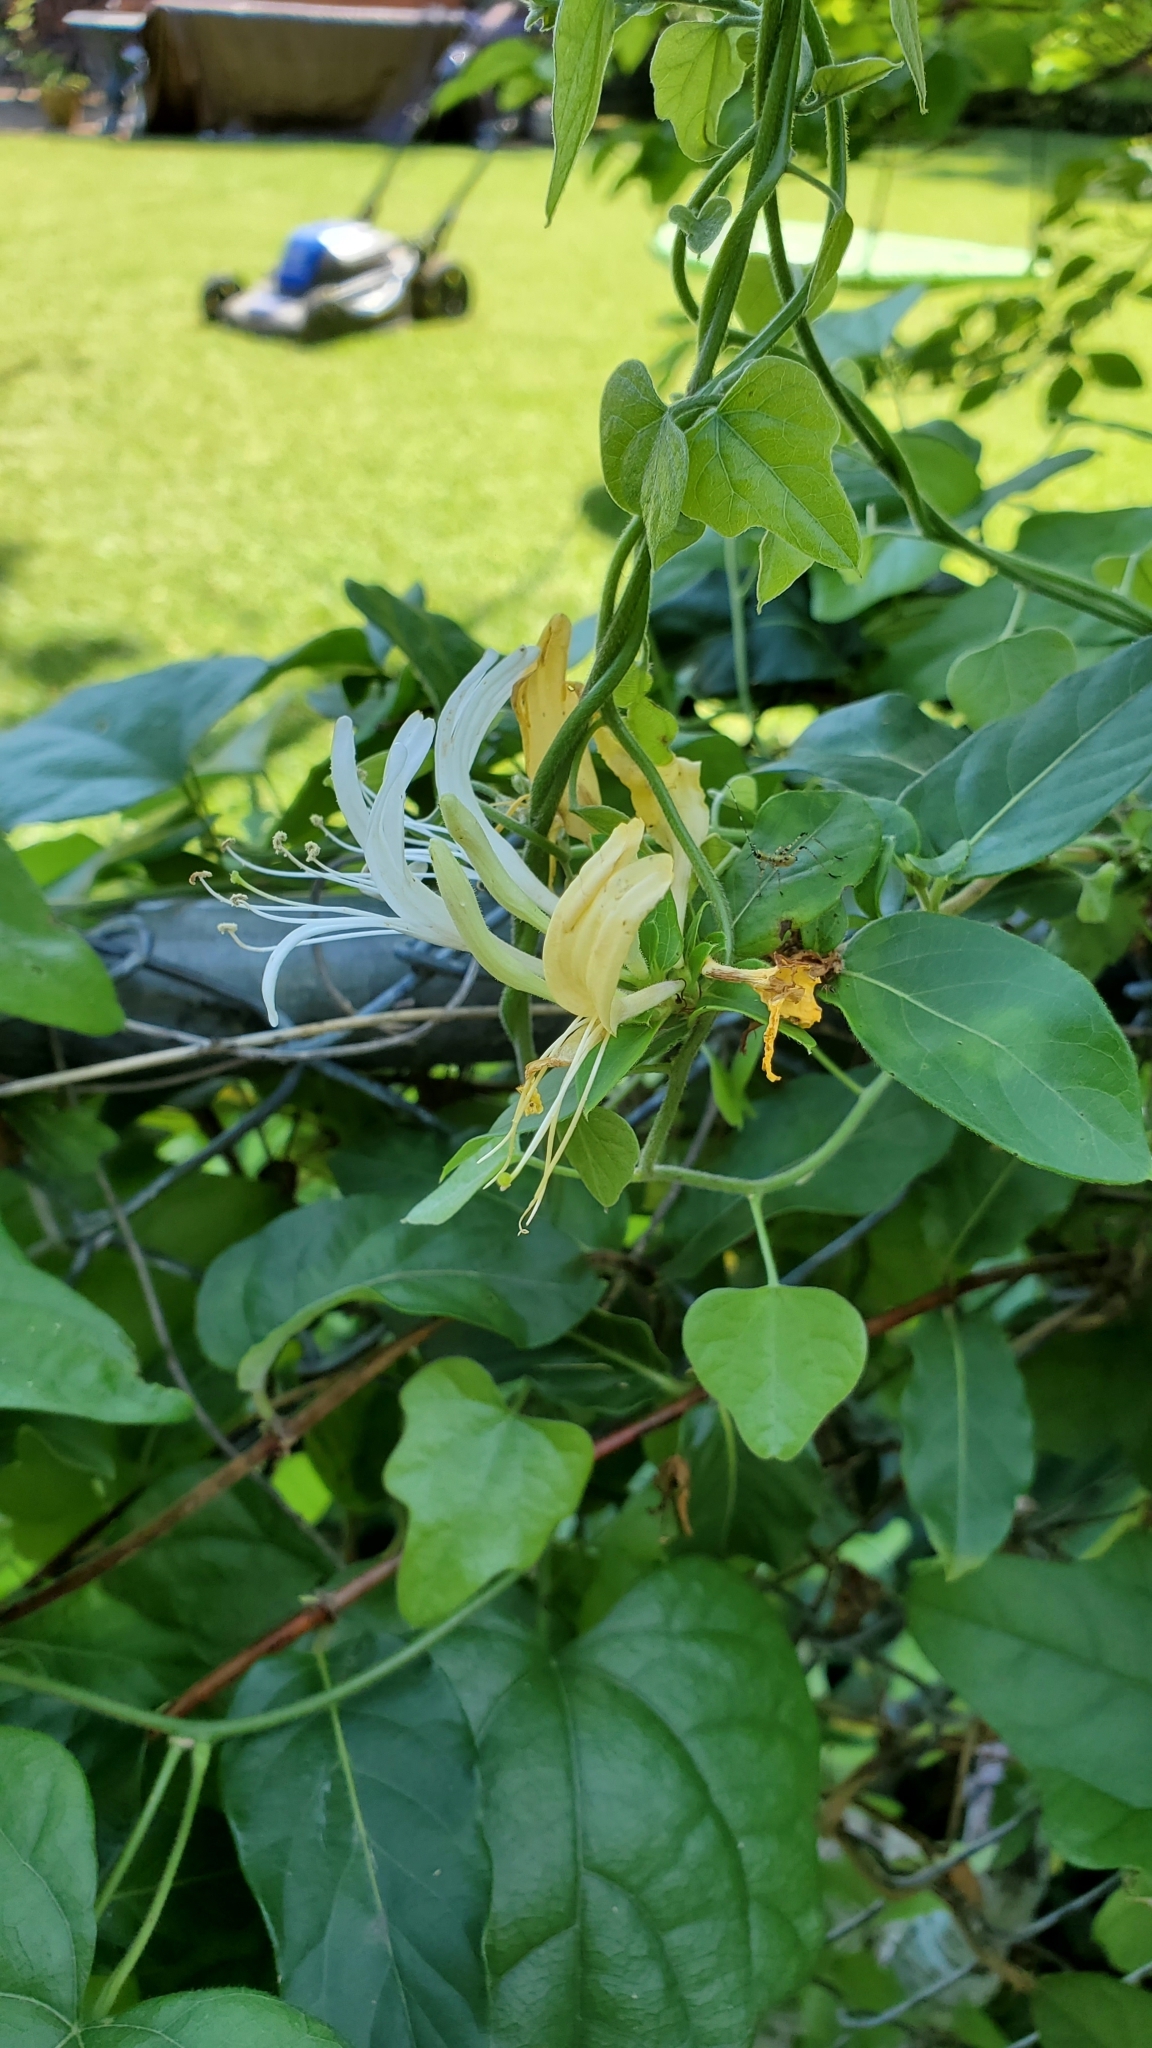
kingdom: Plantae
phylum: Tracheophyta
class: Magnoliopsida
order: Dipsacales
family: Caprifoliaceae
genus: Lonicera
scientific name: Lonicera japonica
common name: Japanese honeysuckle
